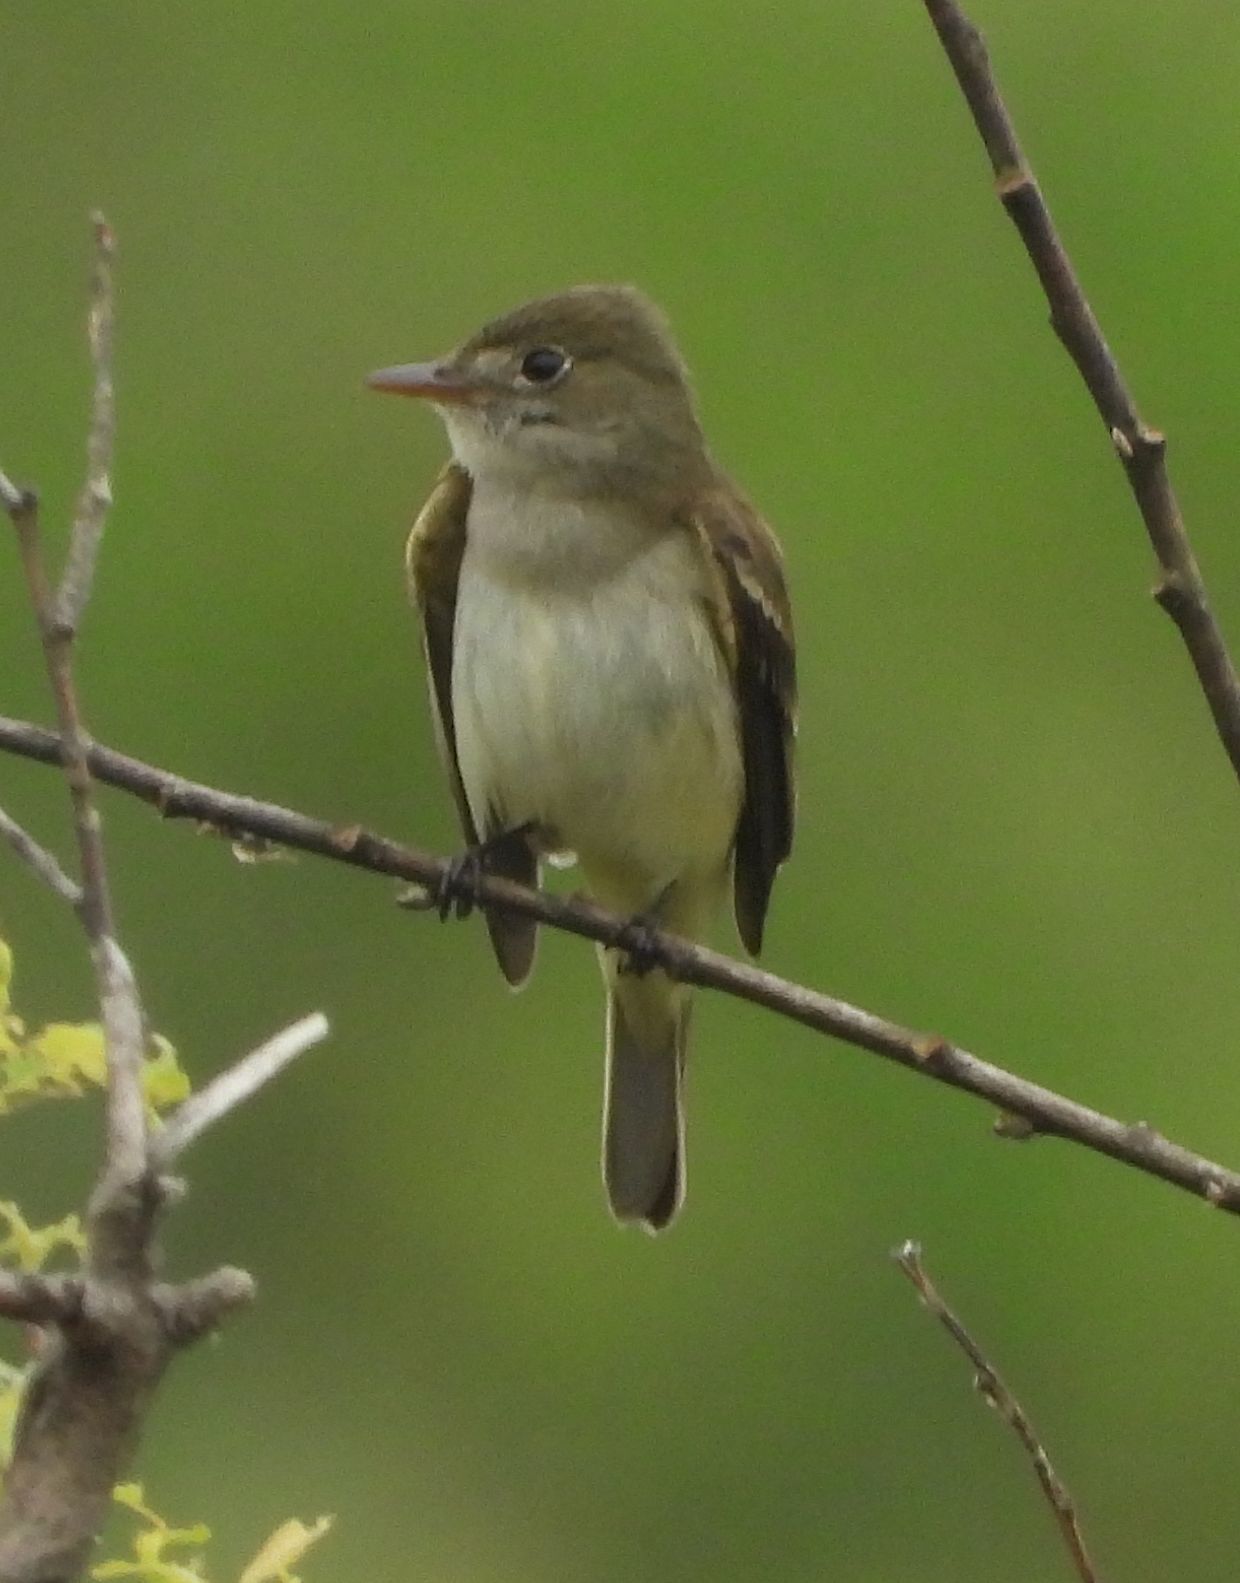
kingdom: Animalia
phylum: Chordata
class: Aves
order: Passeriformes
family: Tyrannidae
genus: Empidonax
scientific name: Empidonax alnorum
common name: Alder flycatcher
